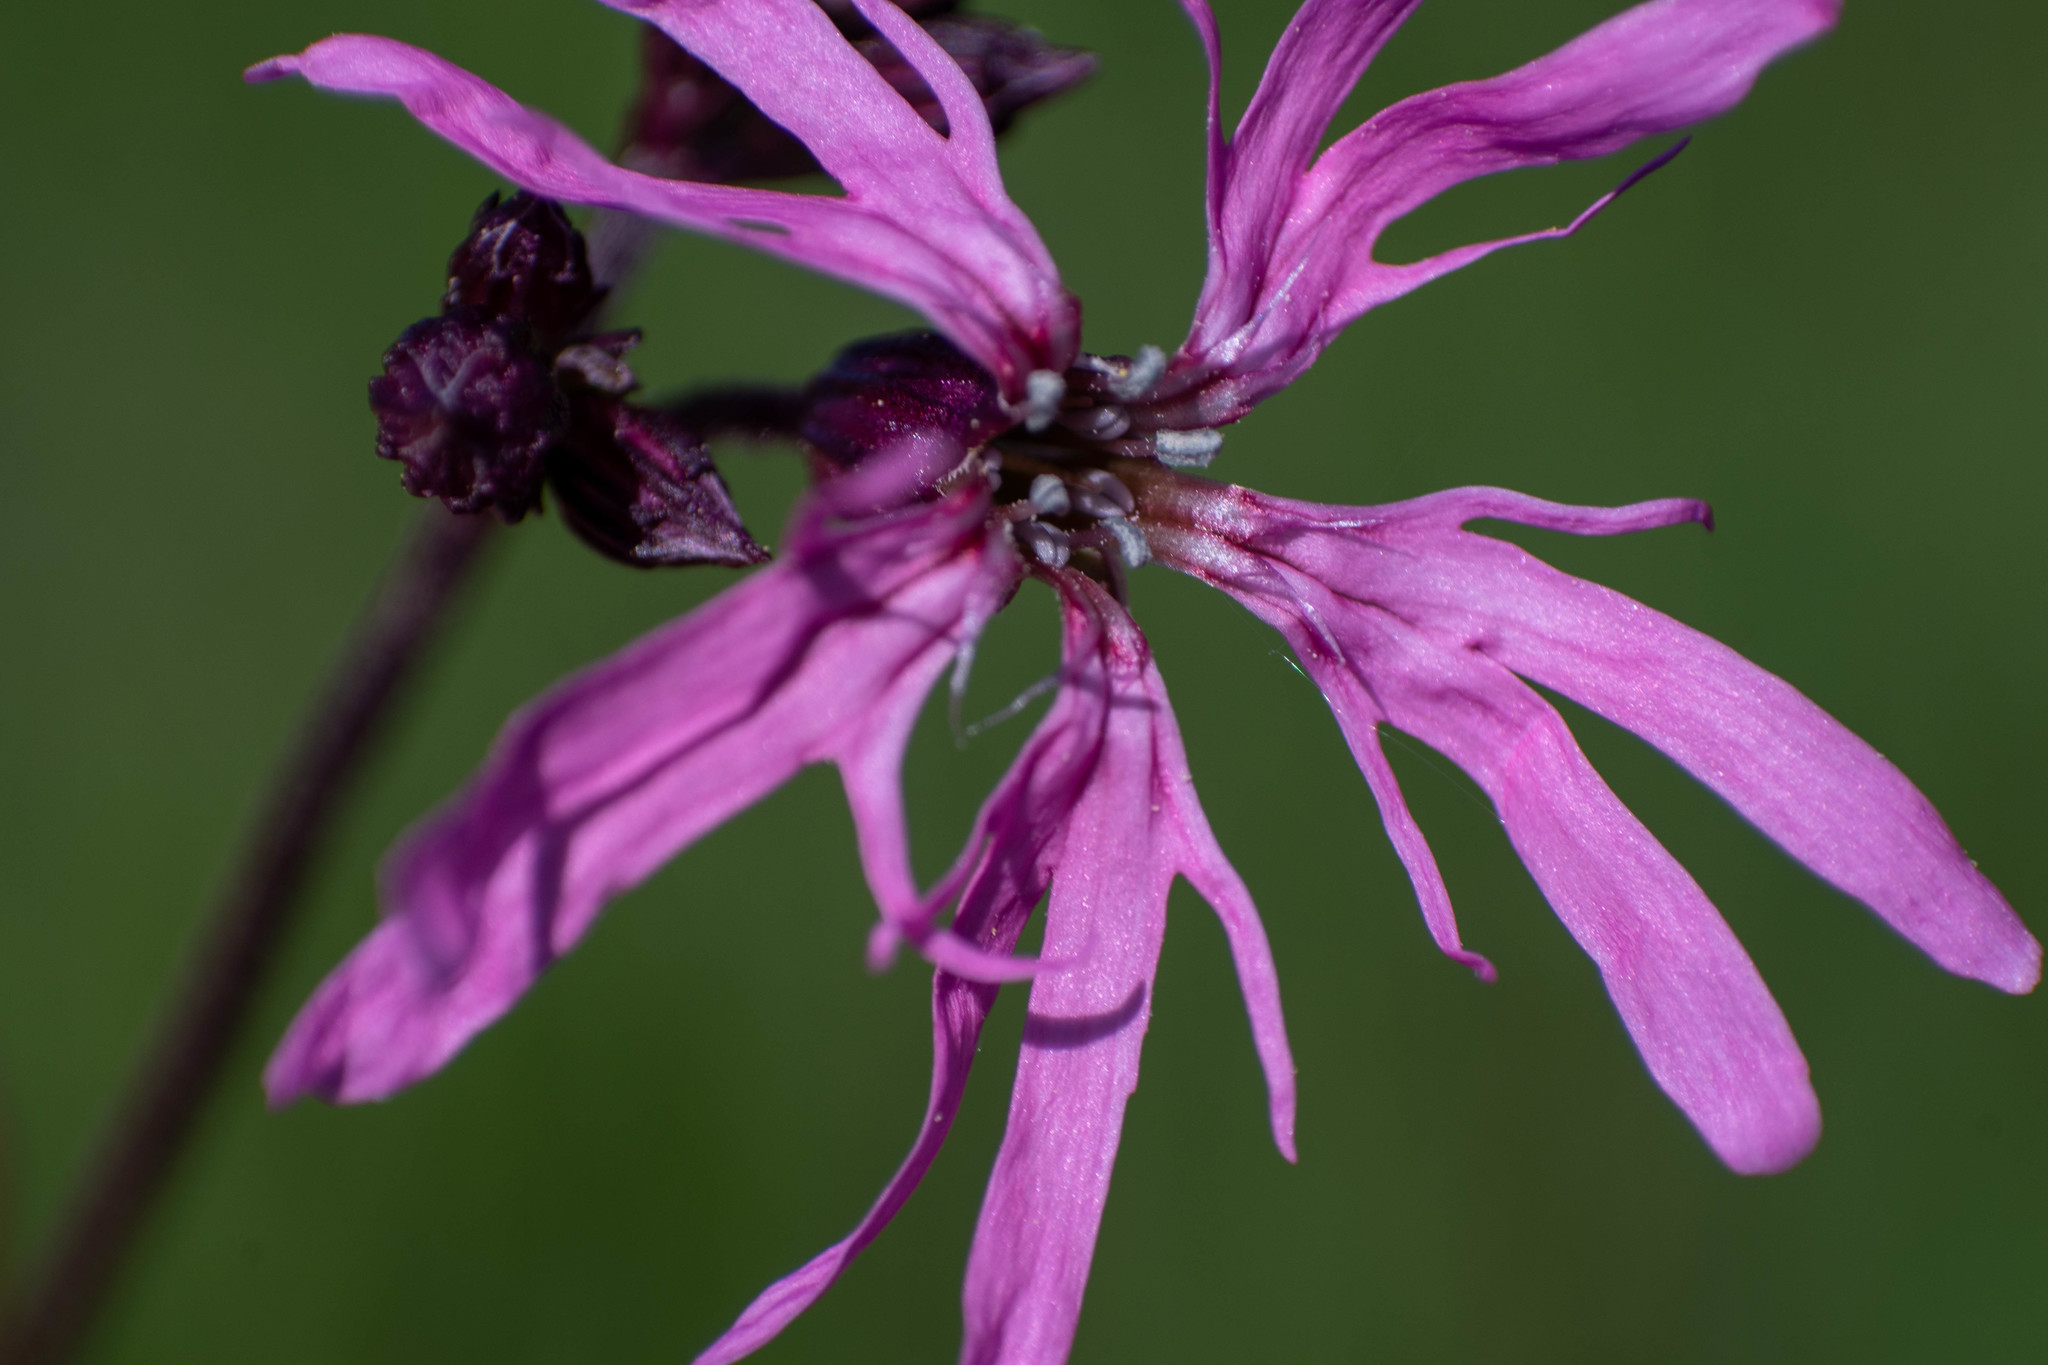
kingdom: Plantae
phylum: Tracheophyta
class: Magnoliopsida
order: Caryophyllales
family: Caryophyllaceae
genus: Silene
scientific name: Silene flos-cuculi
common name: Ragged-robin
